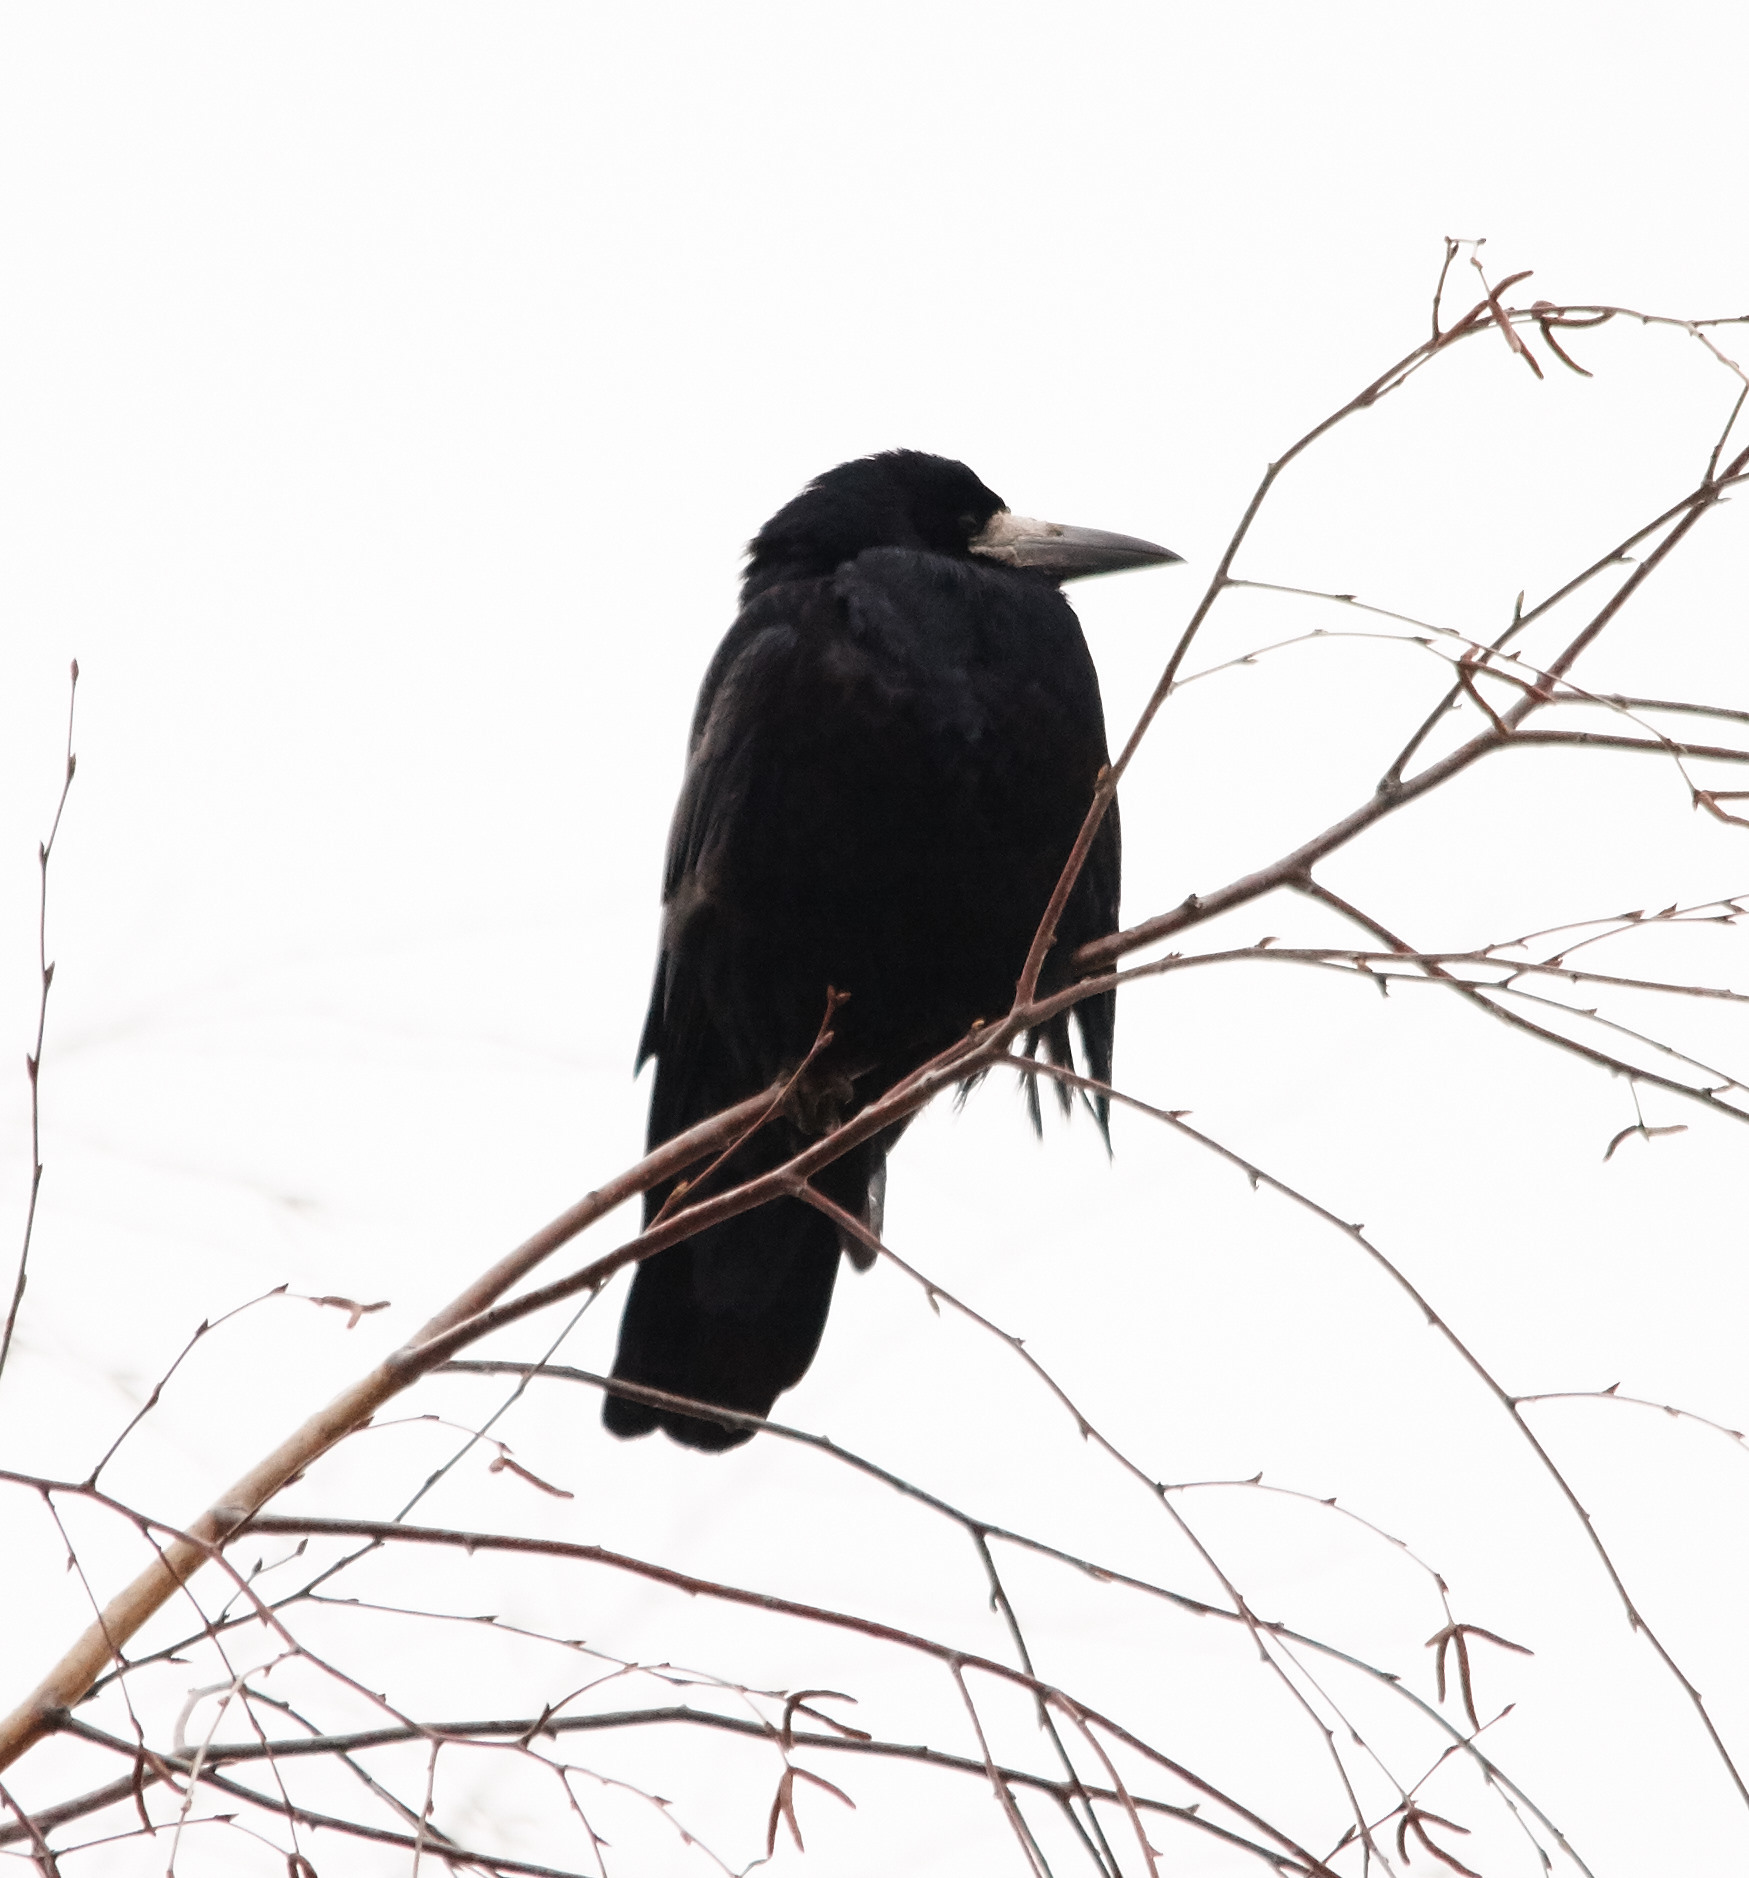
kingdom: Animalia
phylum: Chordata
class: Aves
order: Passeriformes
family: Corvidae
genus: Corvus
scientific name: Corvus frugilegus
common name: Rook
